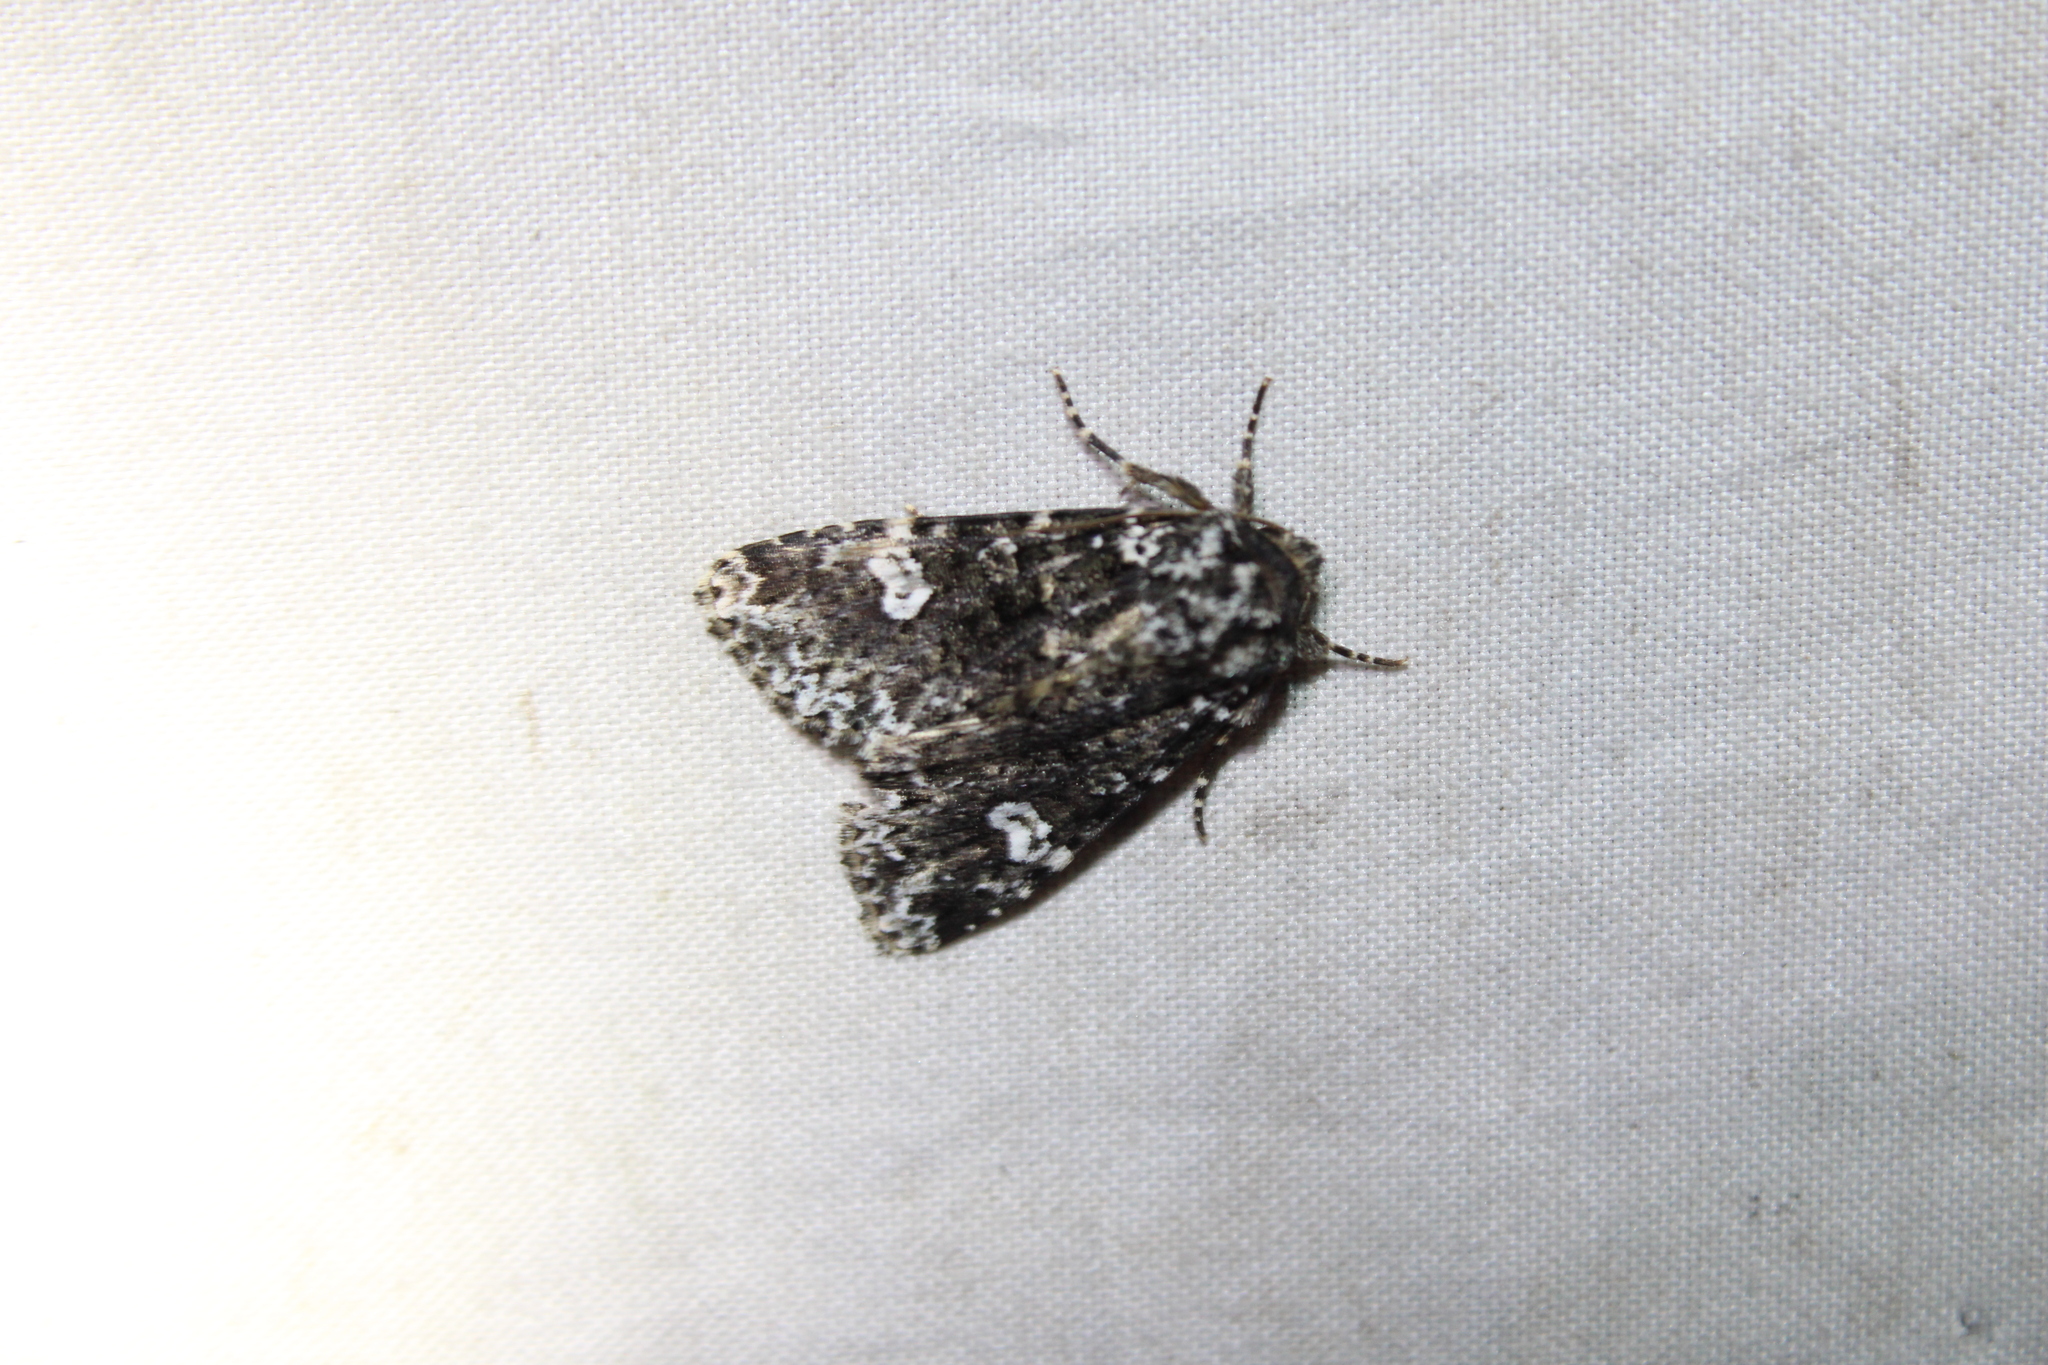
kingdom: Animalia
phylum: Arthropoda
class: Insecta
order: Lepidoptera
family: Noctuidae
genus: Melanchra
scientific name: Melanchra adjuncta
